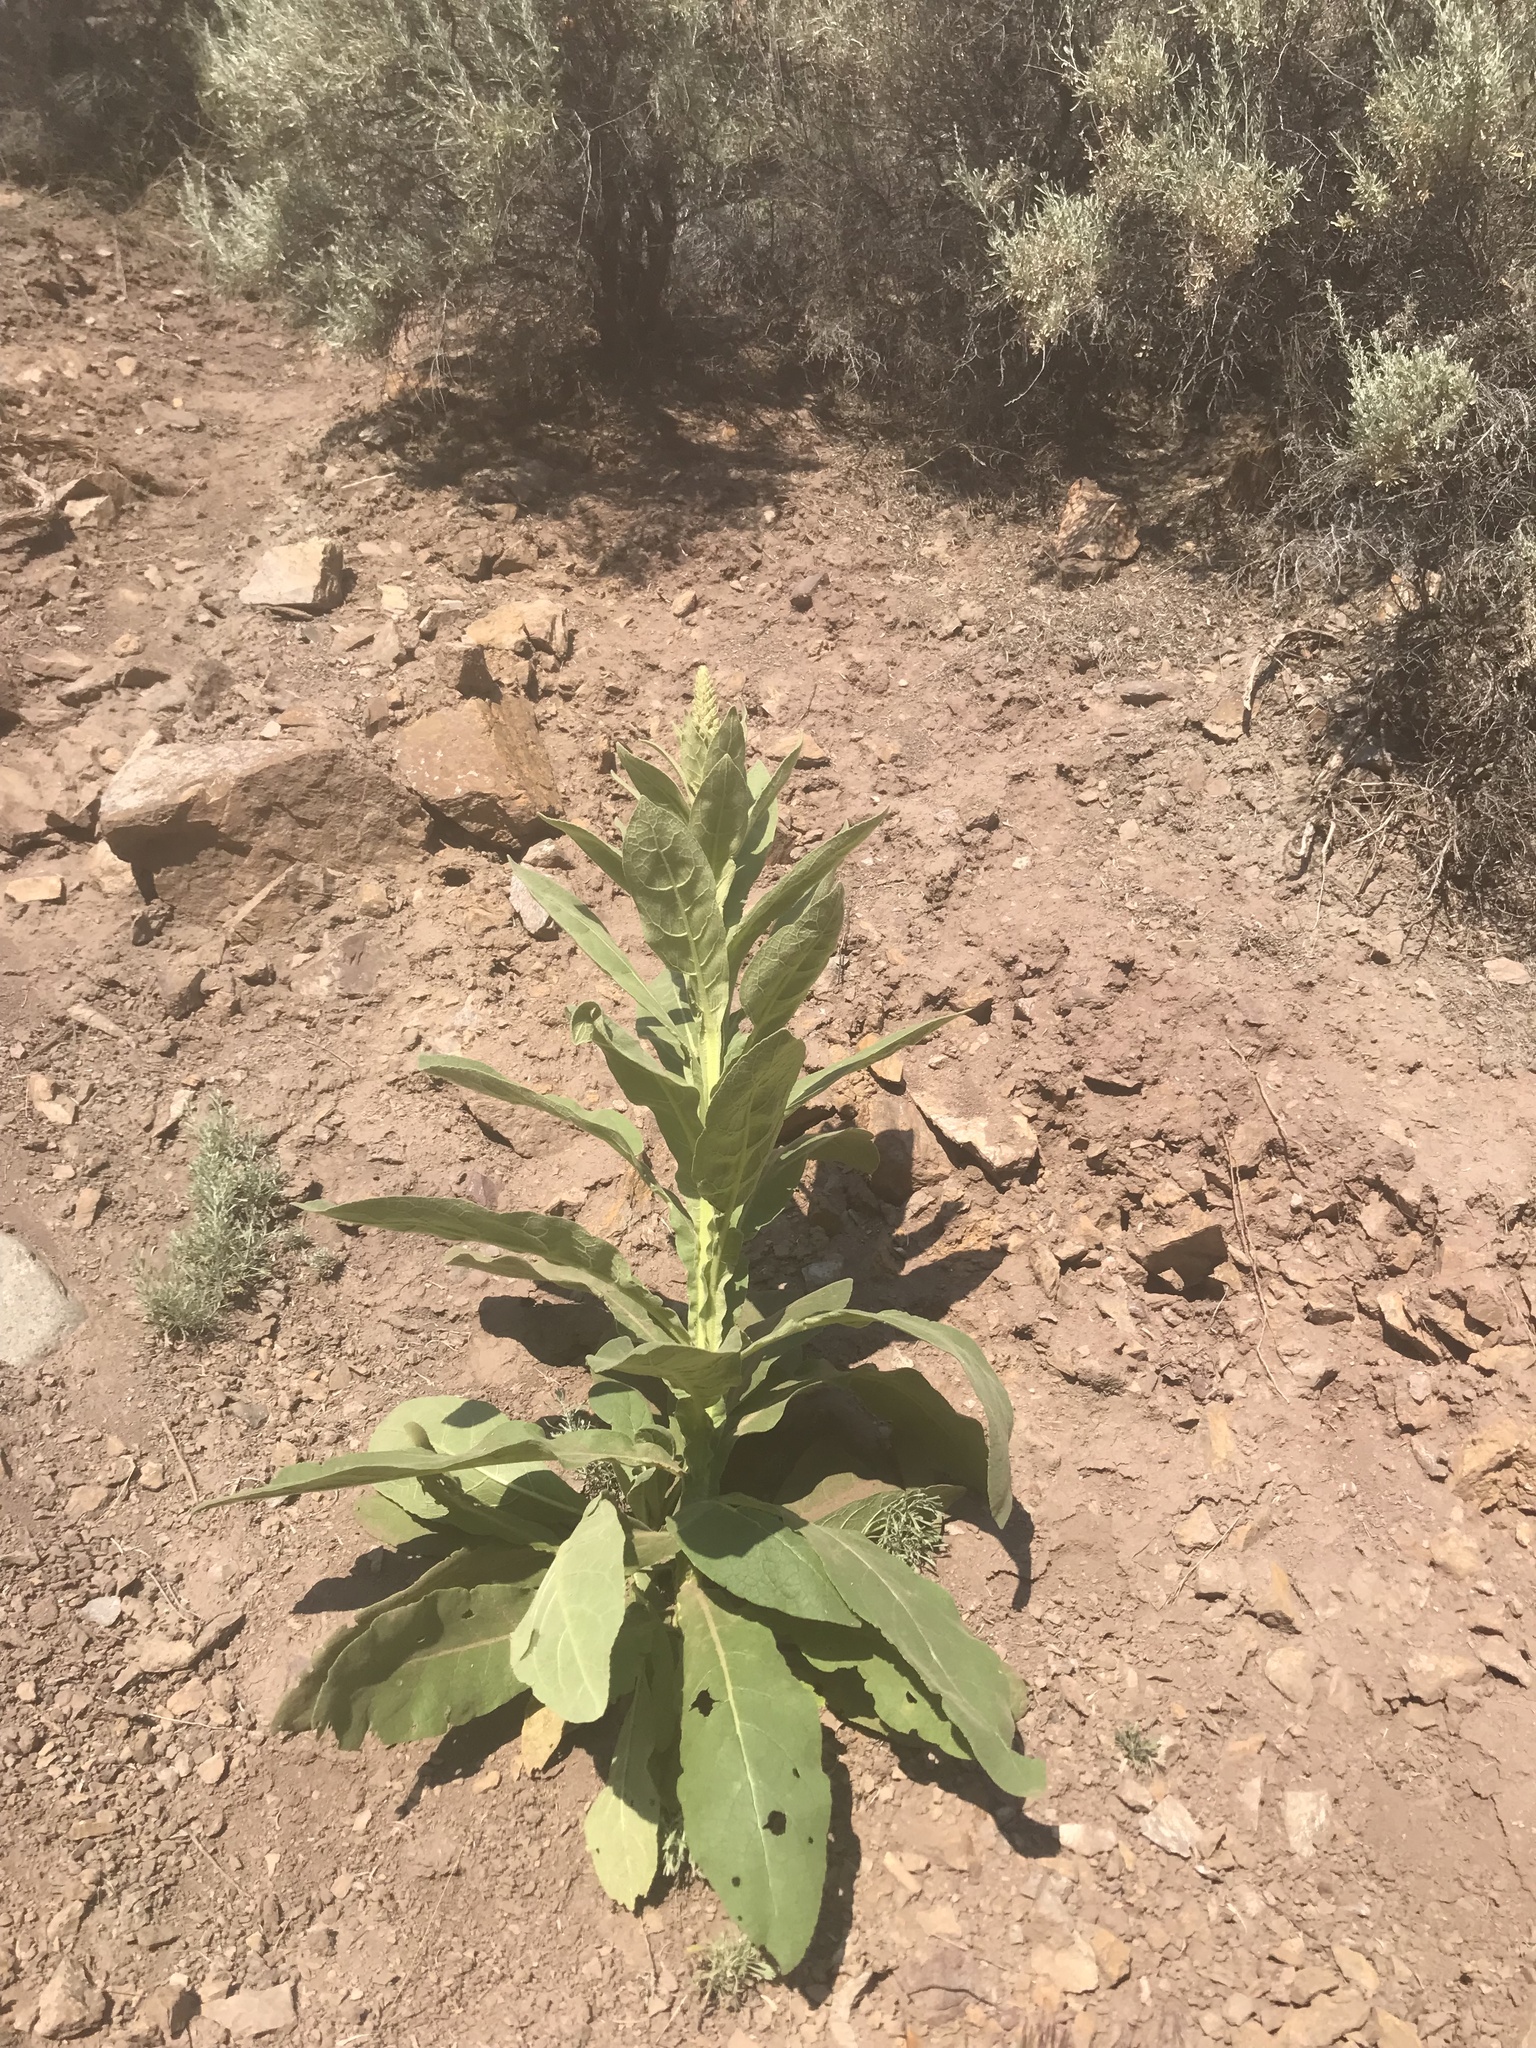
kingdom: Plantae
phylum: Tracheophyta
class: Magnoliopsida
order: Lamiales
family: Scrophulariaceae
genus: Verbascum
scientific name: Verbascum thapsus
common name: Common mullein
